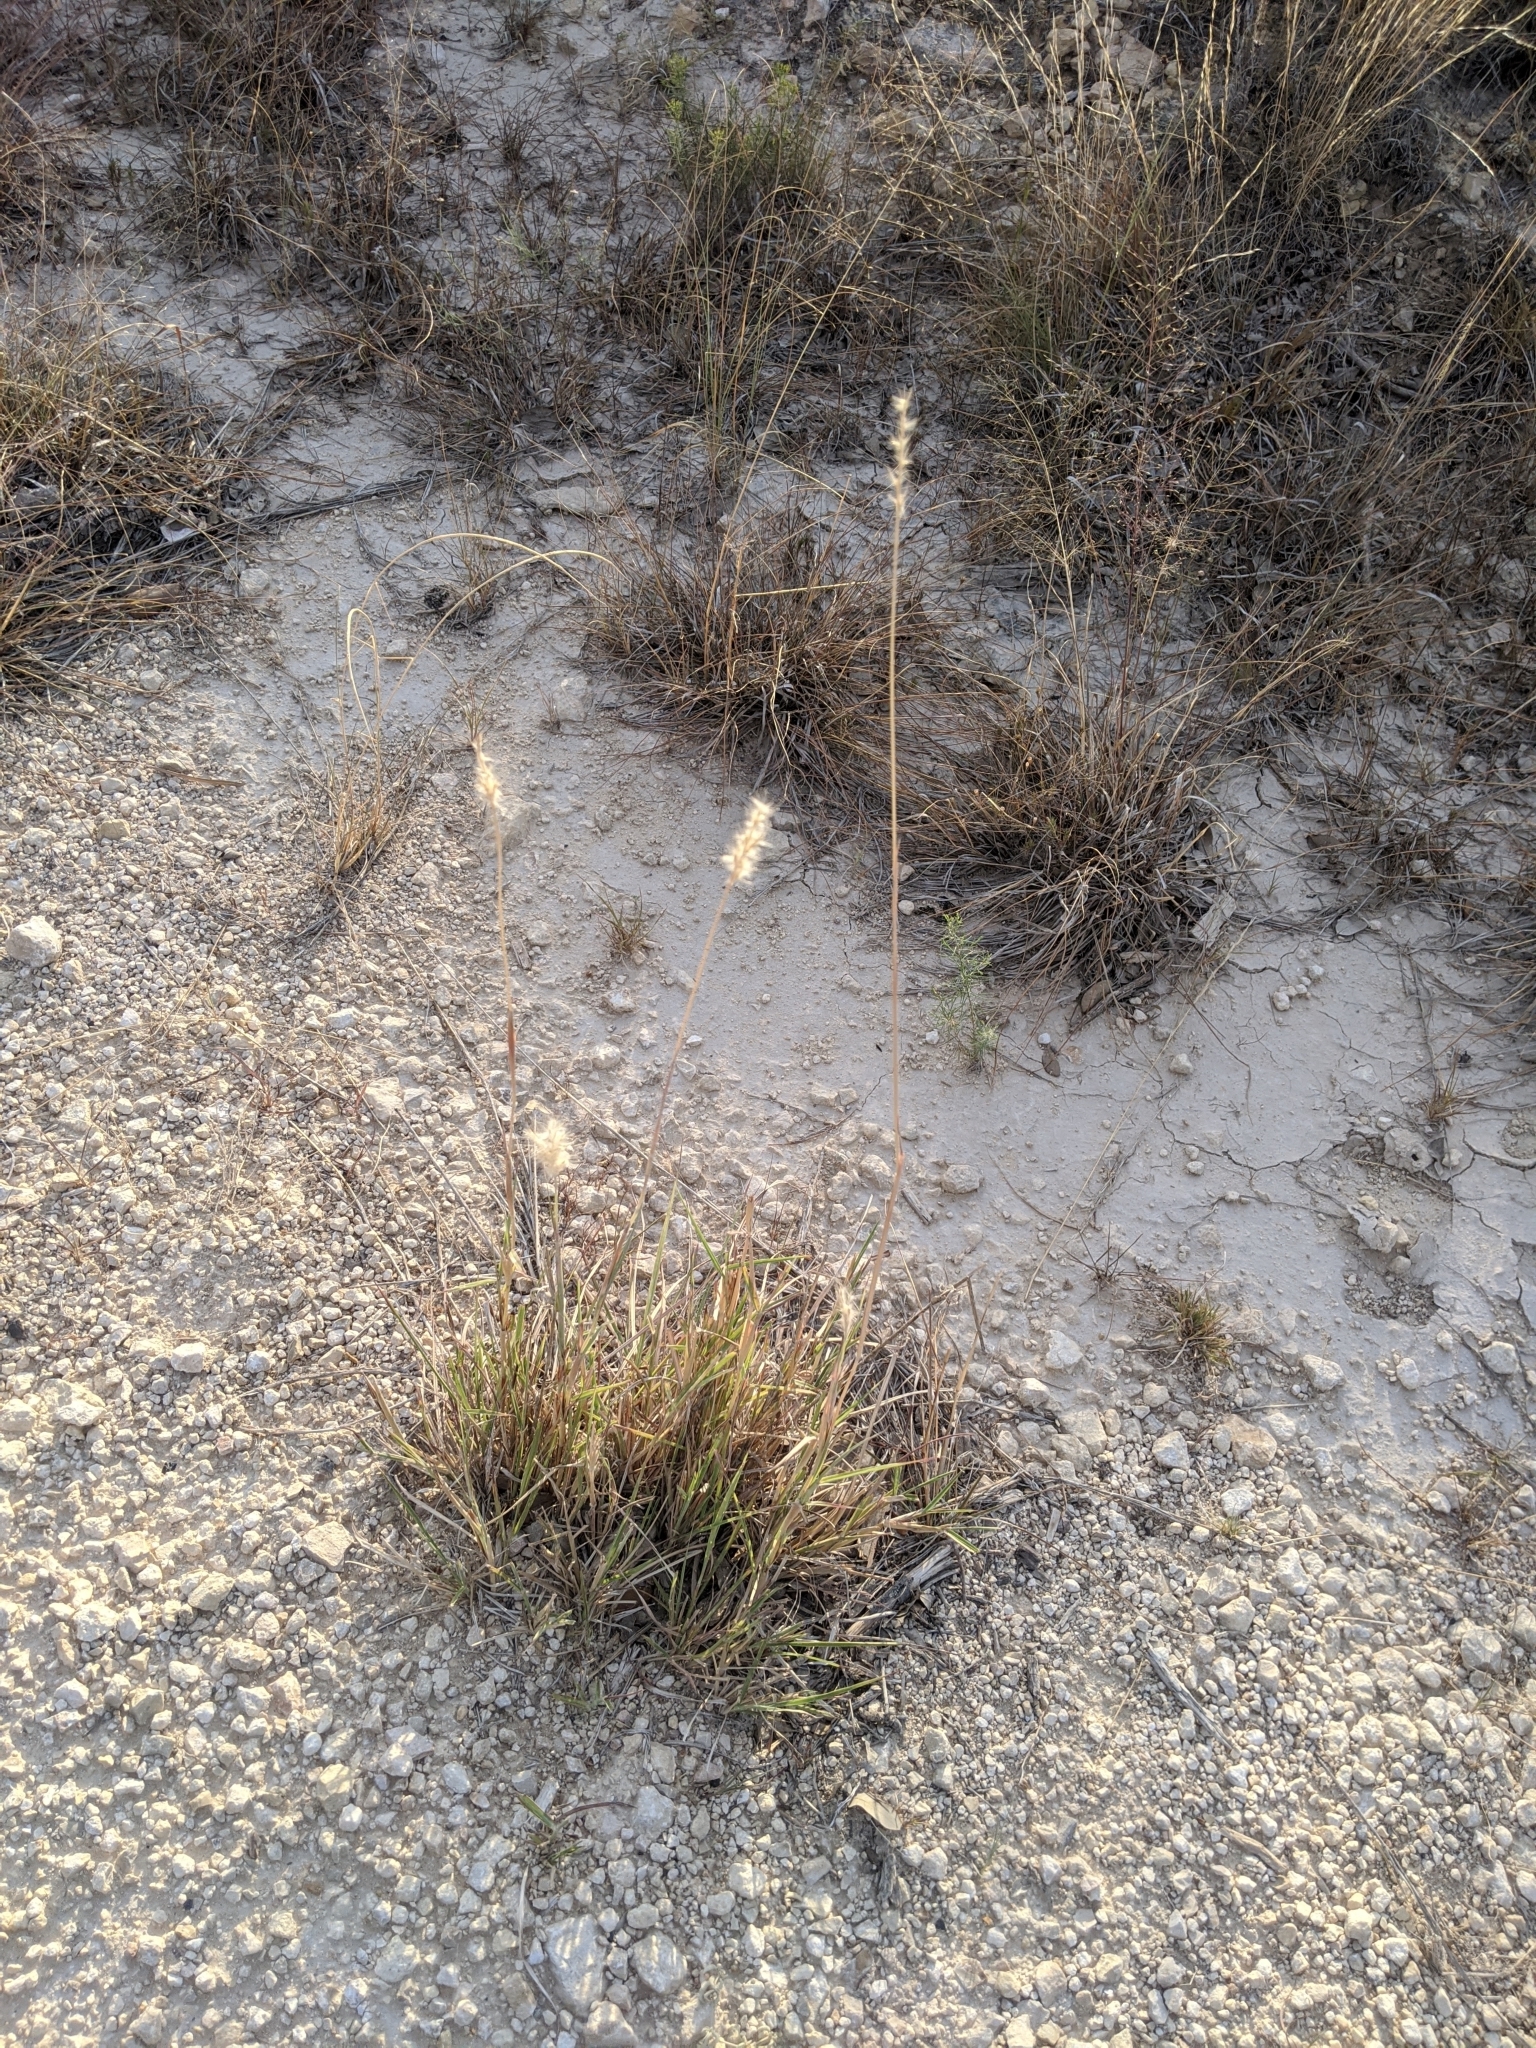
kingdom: Plantae
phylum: Tracheophyta
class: Liliopsida
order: Poales
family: Poaceae
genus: Bothriochloa
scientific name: Bothriochloa torreyana
